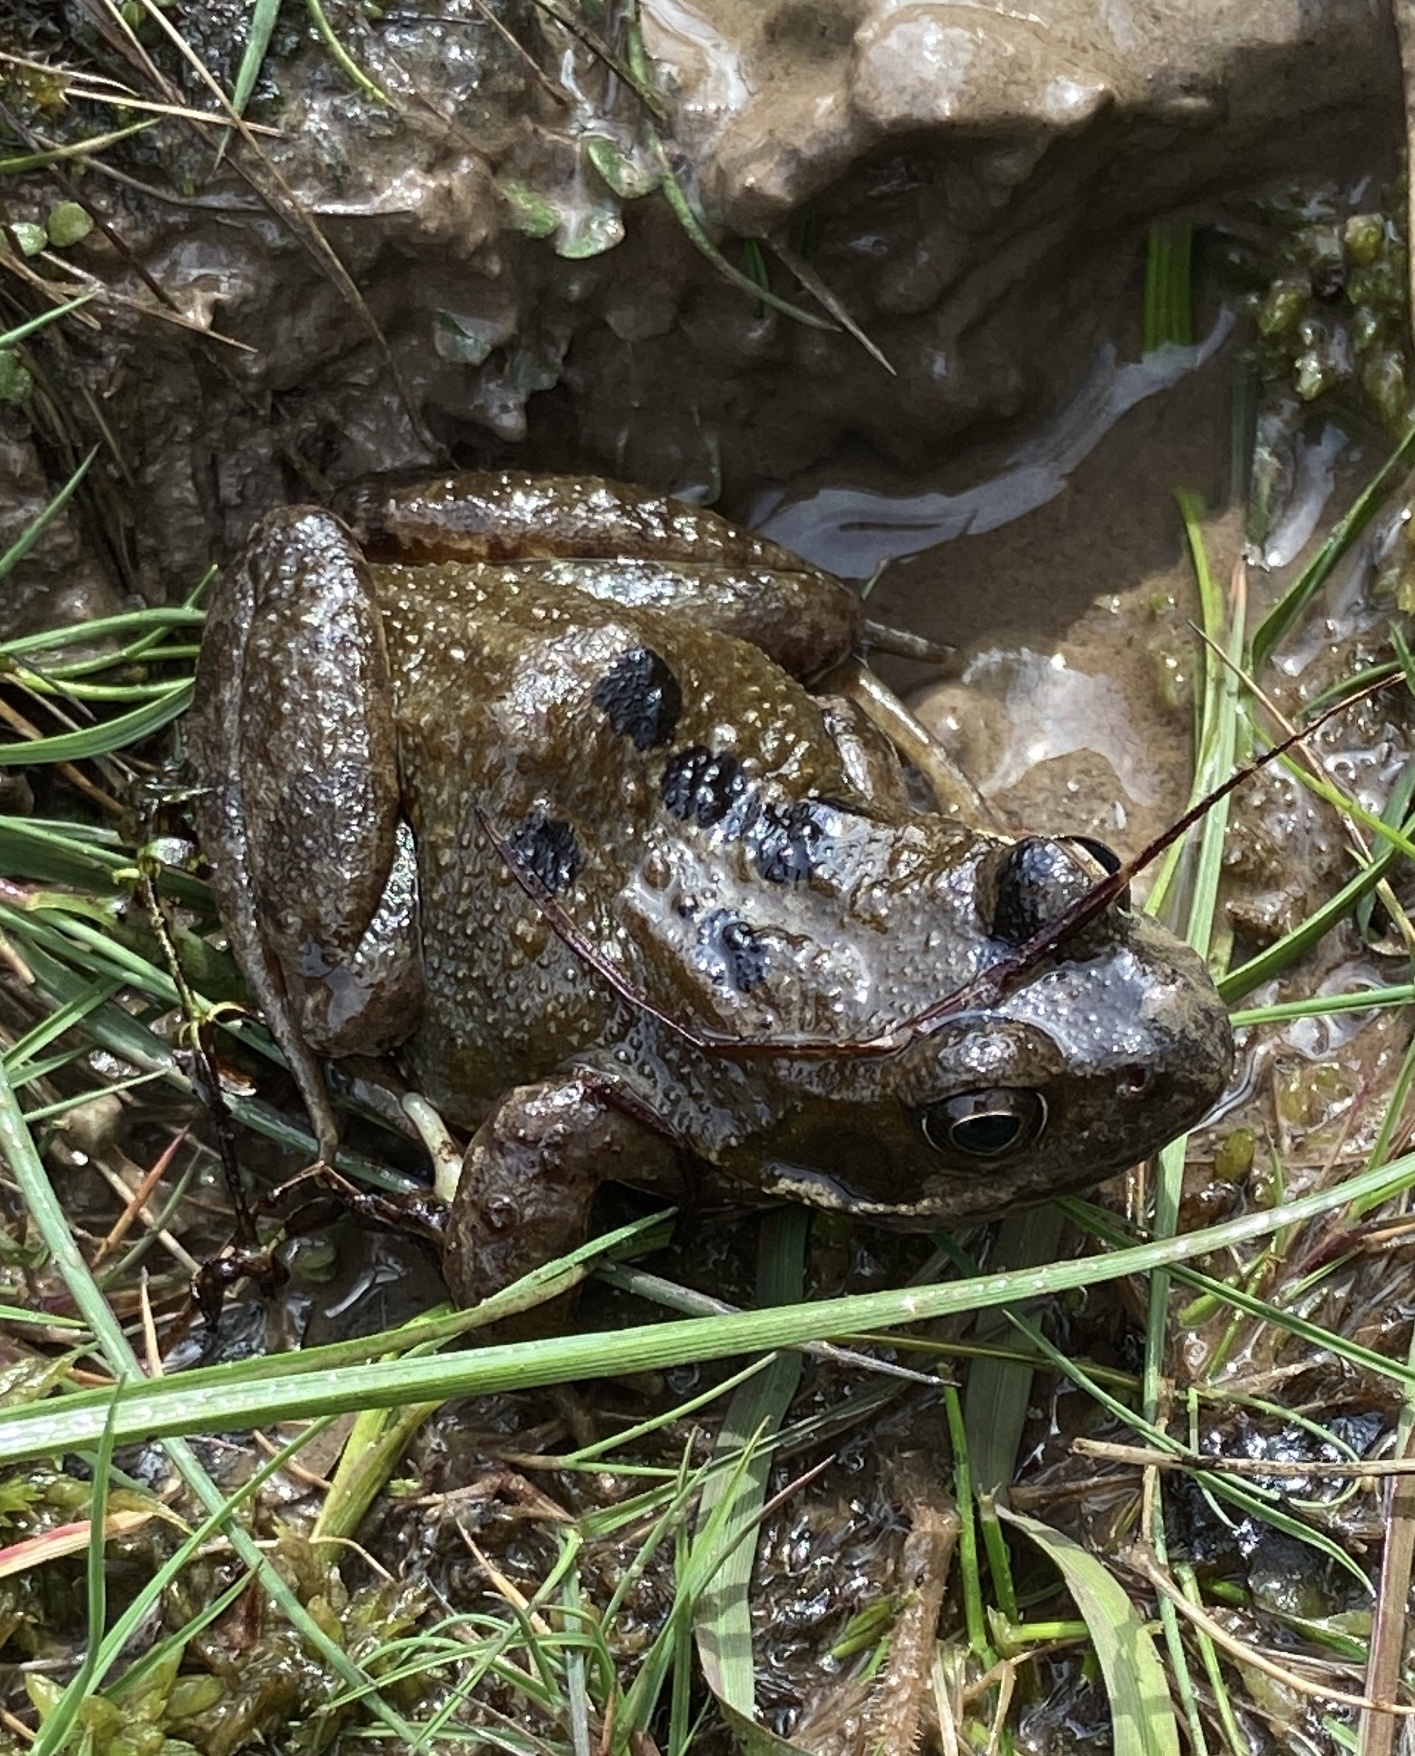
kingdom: Animalia
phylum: Chordata
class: Amphibia
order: Anura
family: Ranidae
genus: Rana
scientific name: Rana temporaria
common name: Common frog
